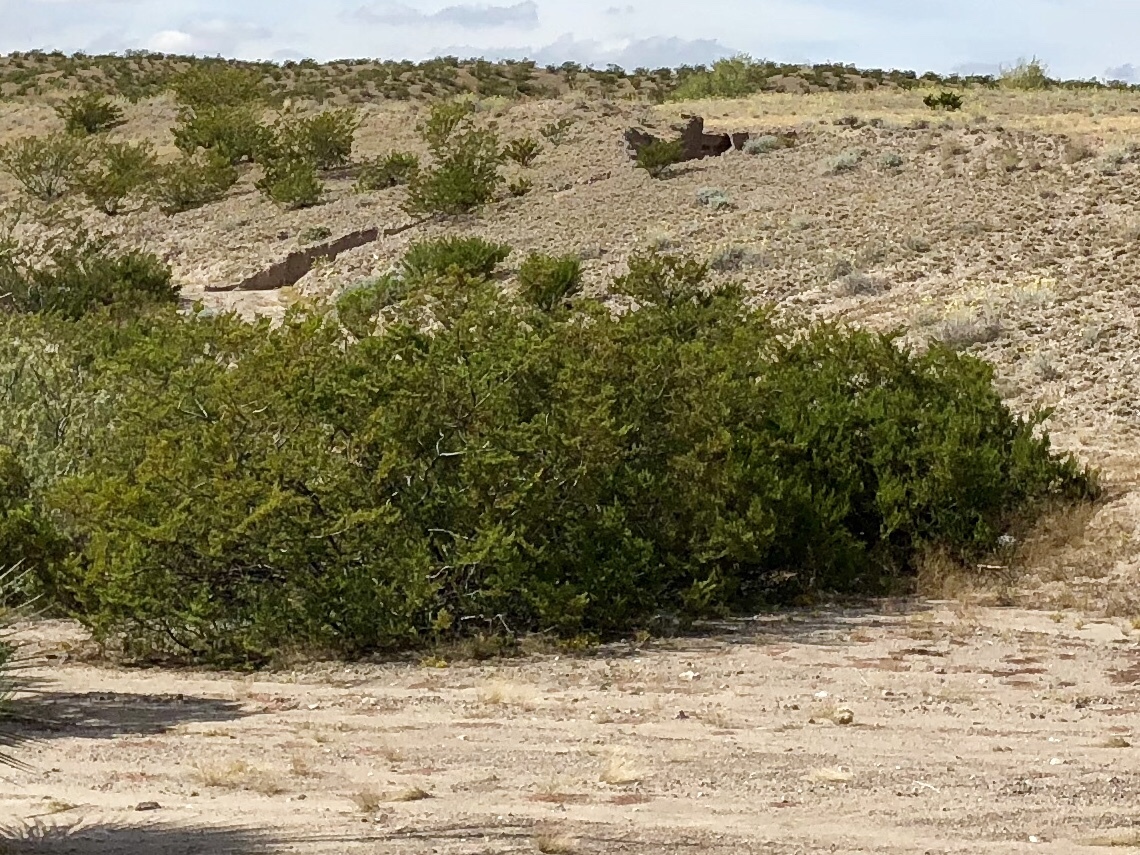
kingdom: Plantae
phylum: Tracheophyta
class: Magnoliopsida
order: Zygophyllales
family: Zygophyllaceae
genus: Larrea
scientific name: Larrea tridentata
